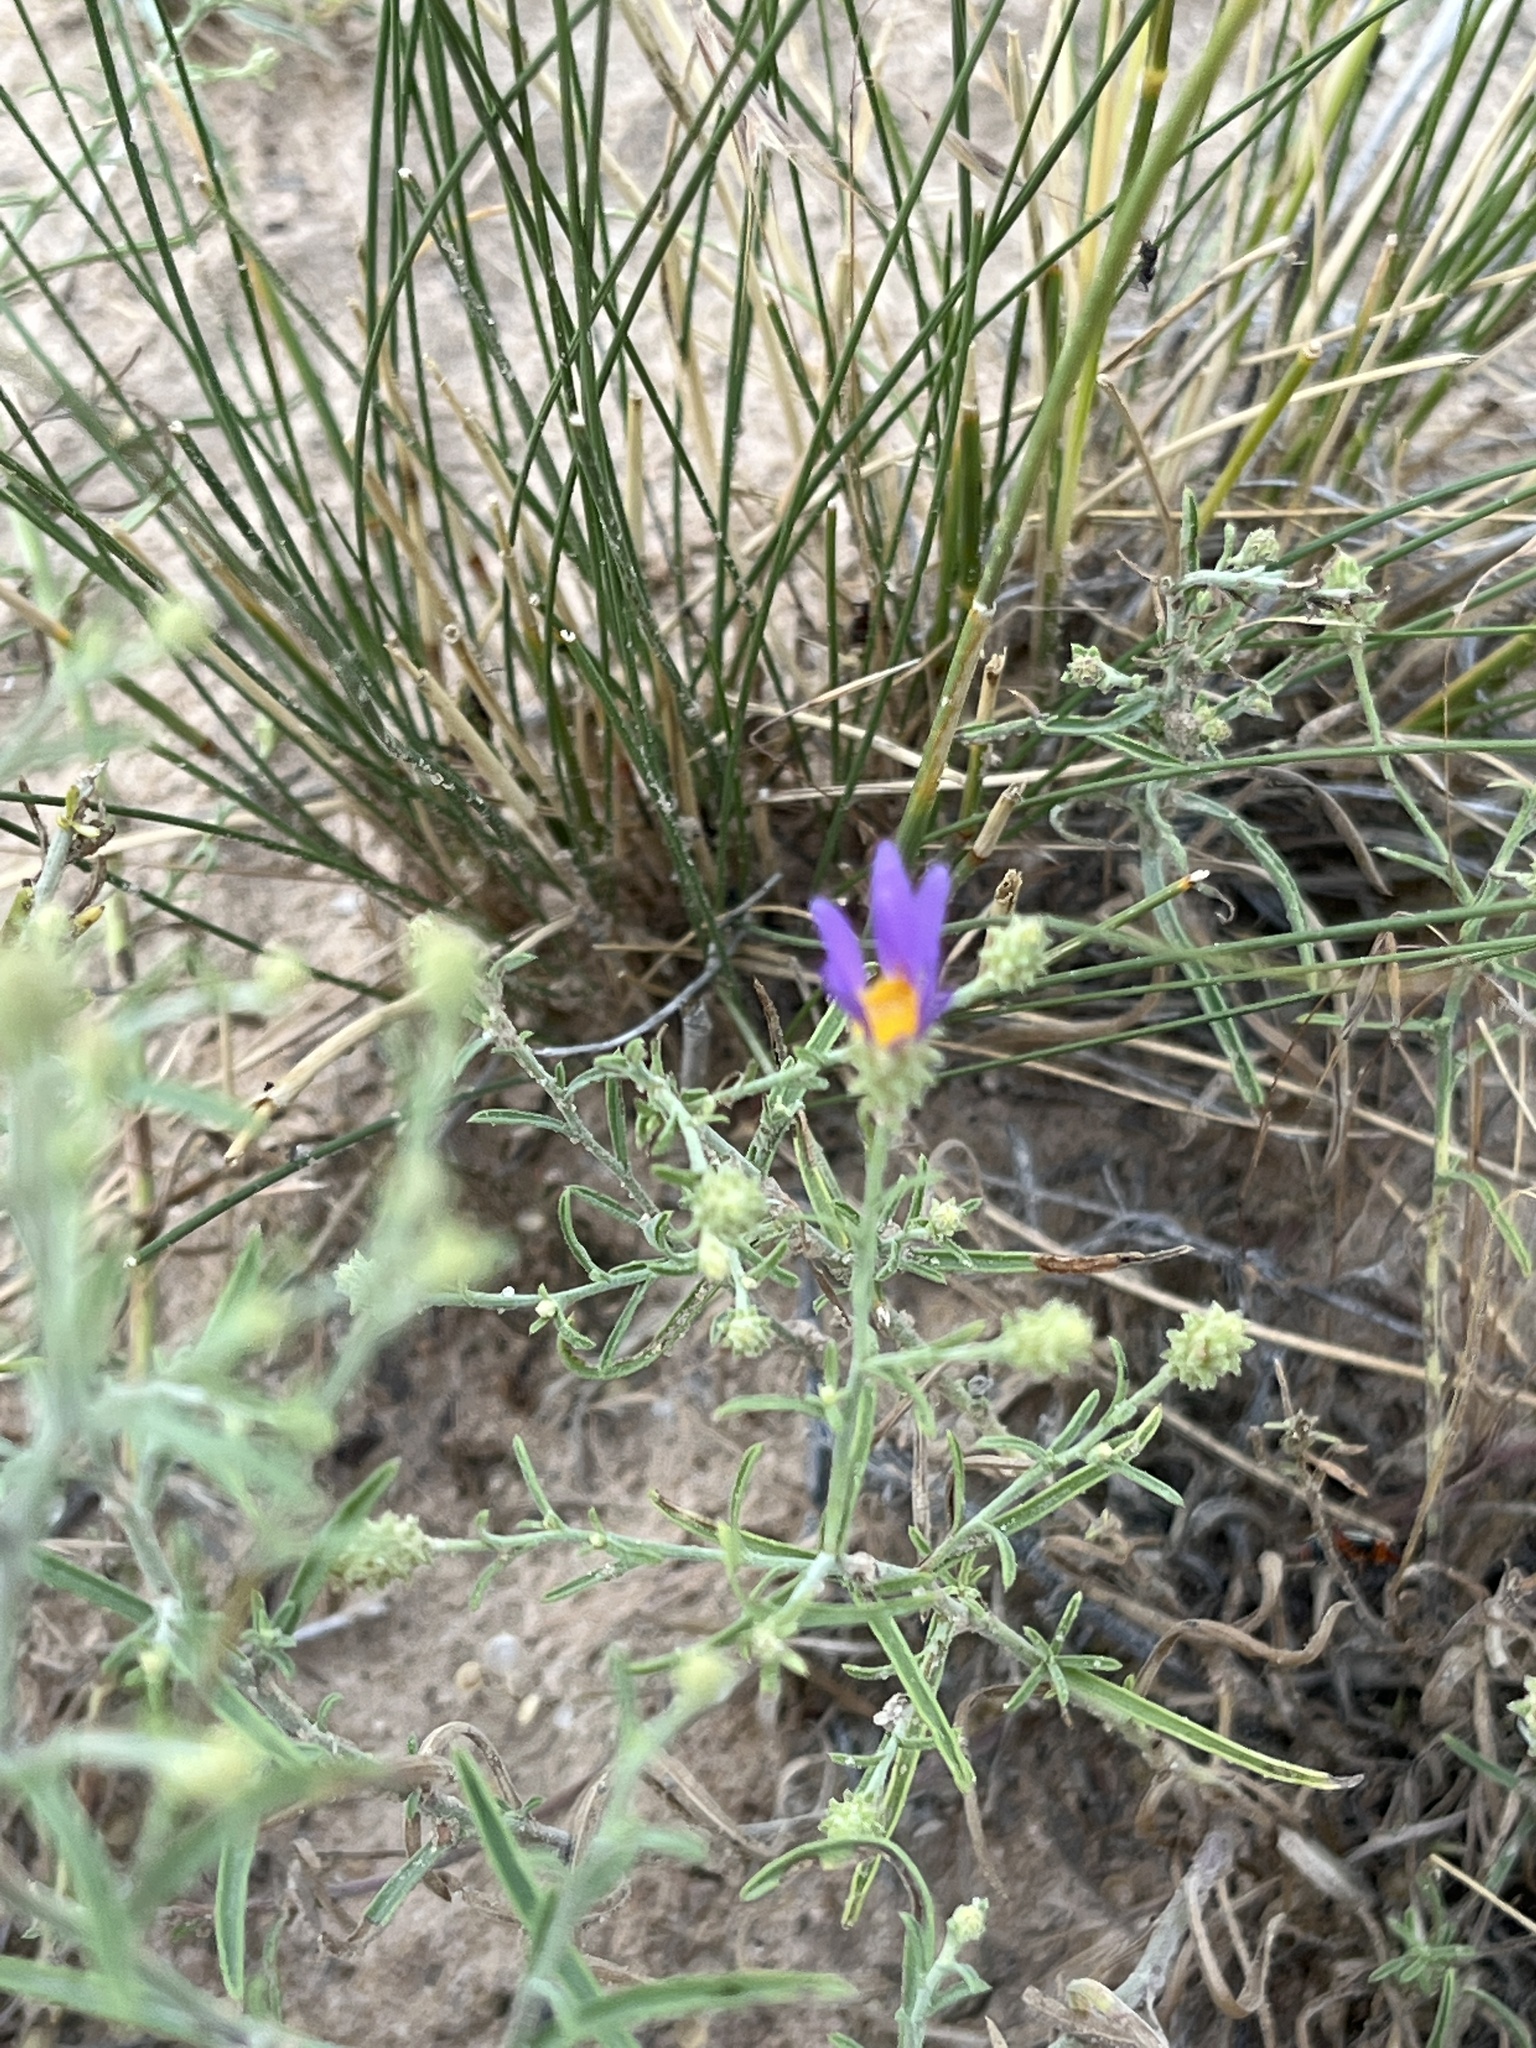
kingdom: Plantae
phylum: Tracheophyta
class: Magnoliopsida
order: Asterales
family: Asteraceae
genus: Dieteria
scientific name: Dieteria canescens
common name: Hoary-aster
